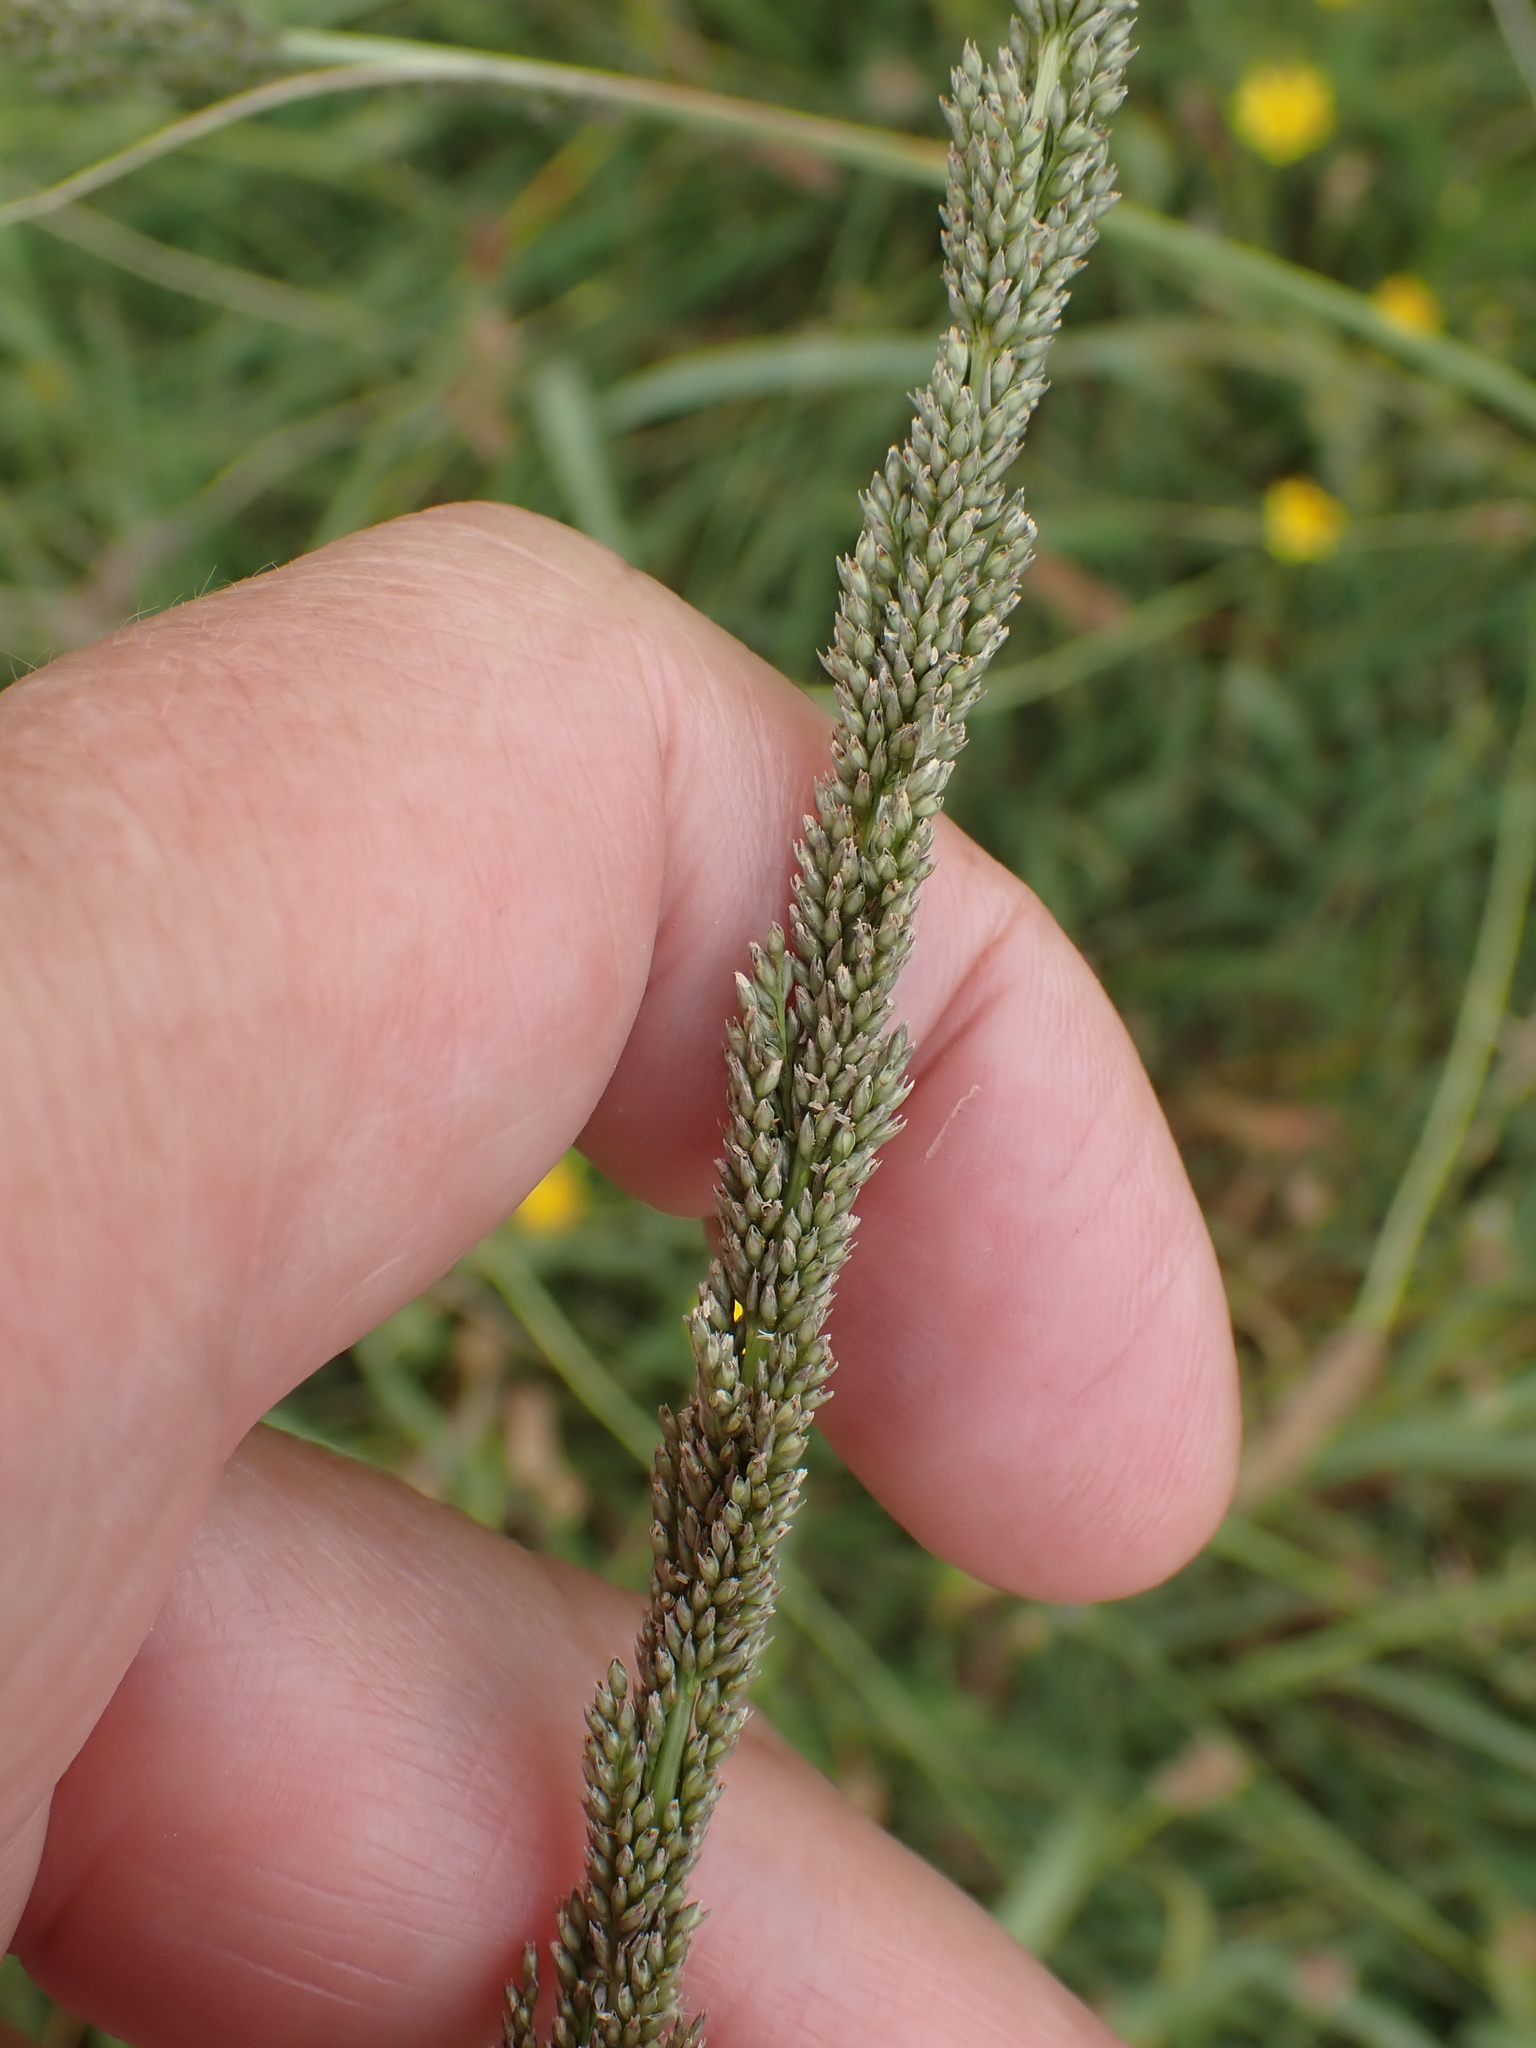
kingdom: Plantae
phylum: Tracheophyta
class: Liliopsida
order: Poales
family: Poaceae
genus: Sporobolus
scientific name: Sporobolus indicus
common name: Smut grass
